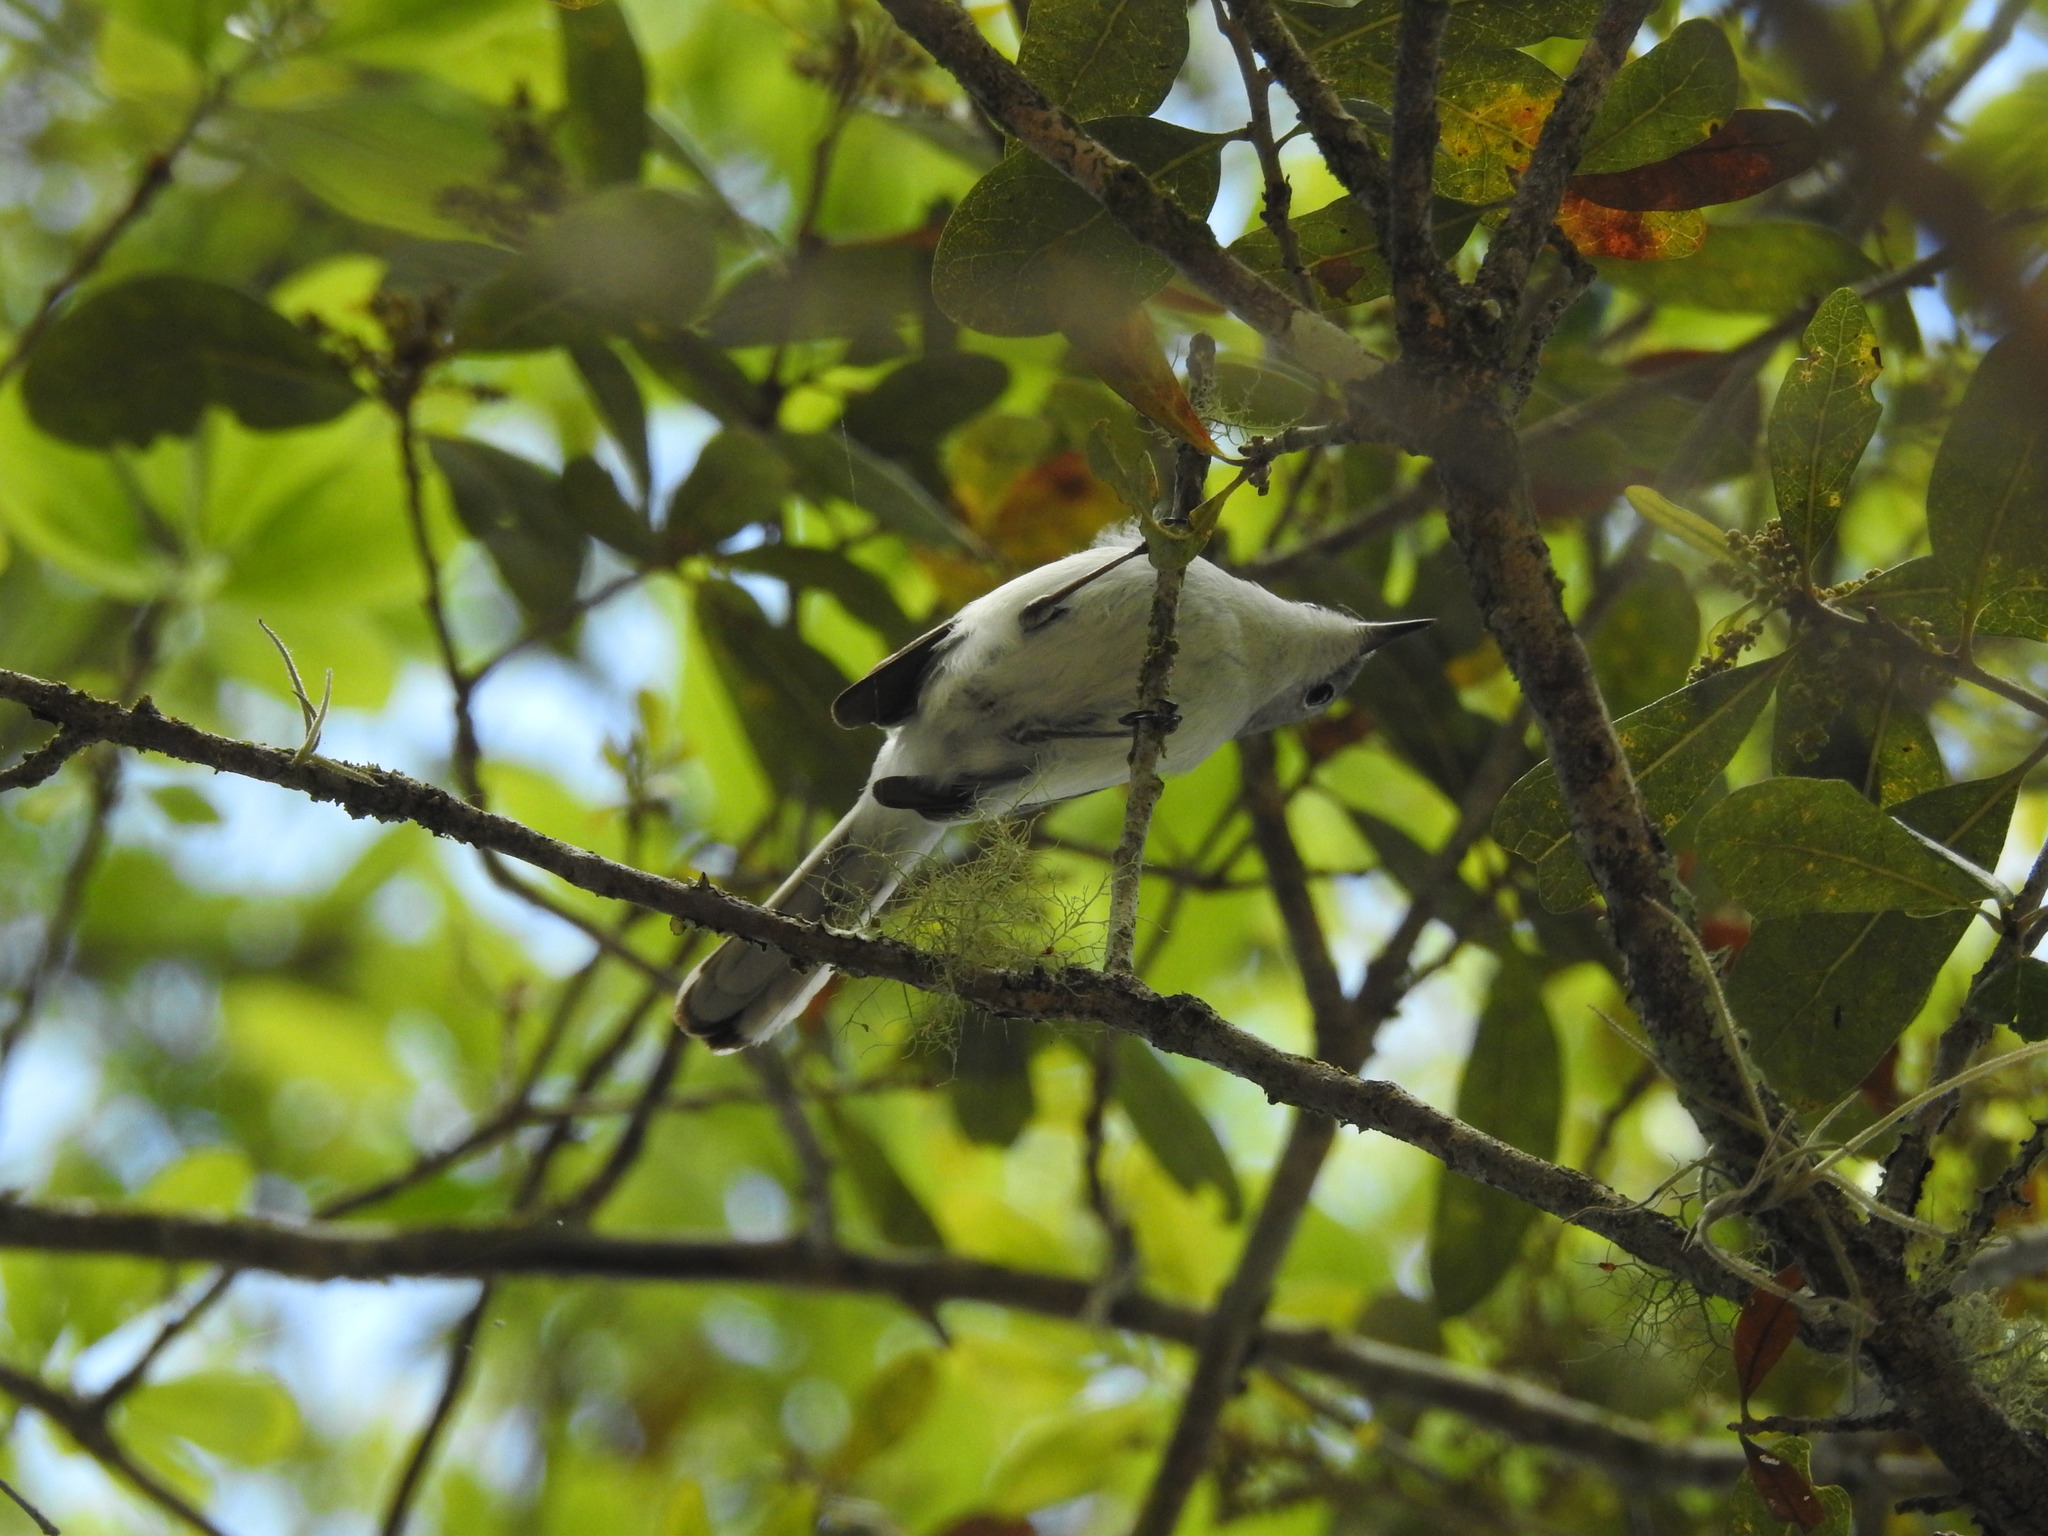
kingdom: Animalia
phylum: Chordata
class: Aves
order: Passeriformes
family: Polioptilidae
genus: Polioptila
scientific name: Polioptila caerulea
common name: Blue-gray gnatcatcher
